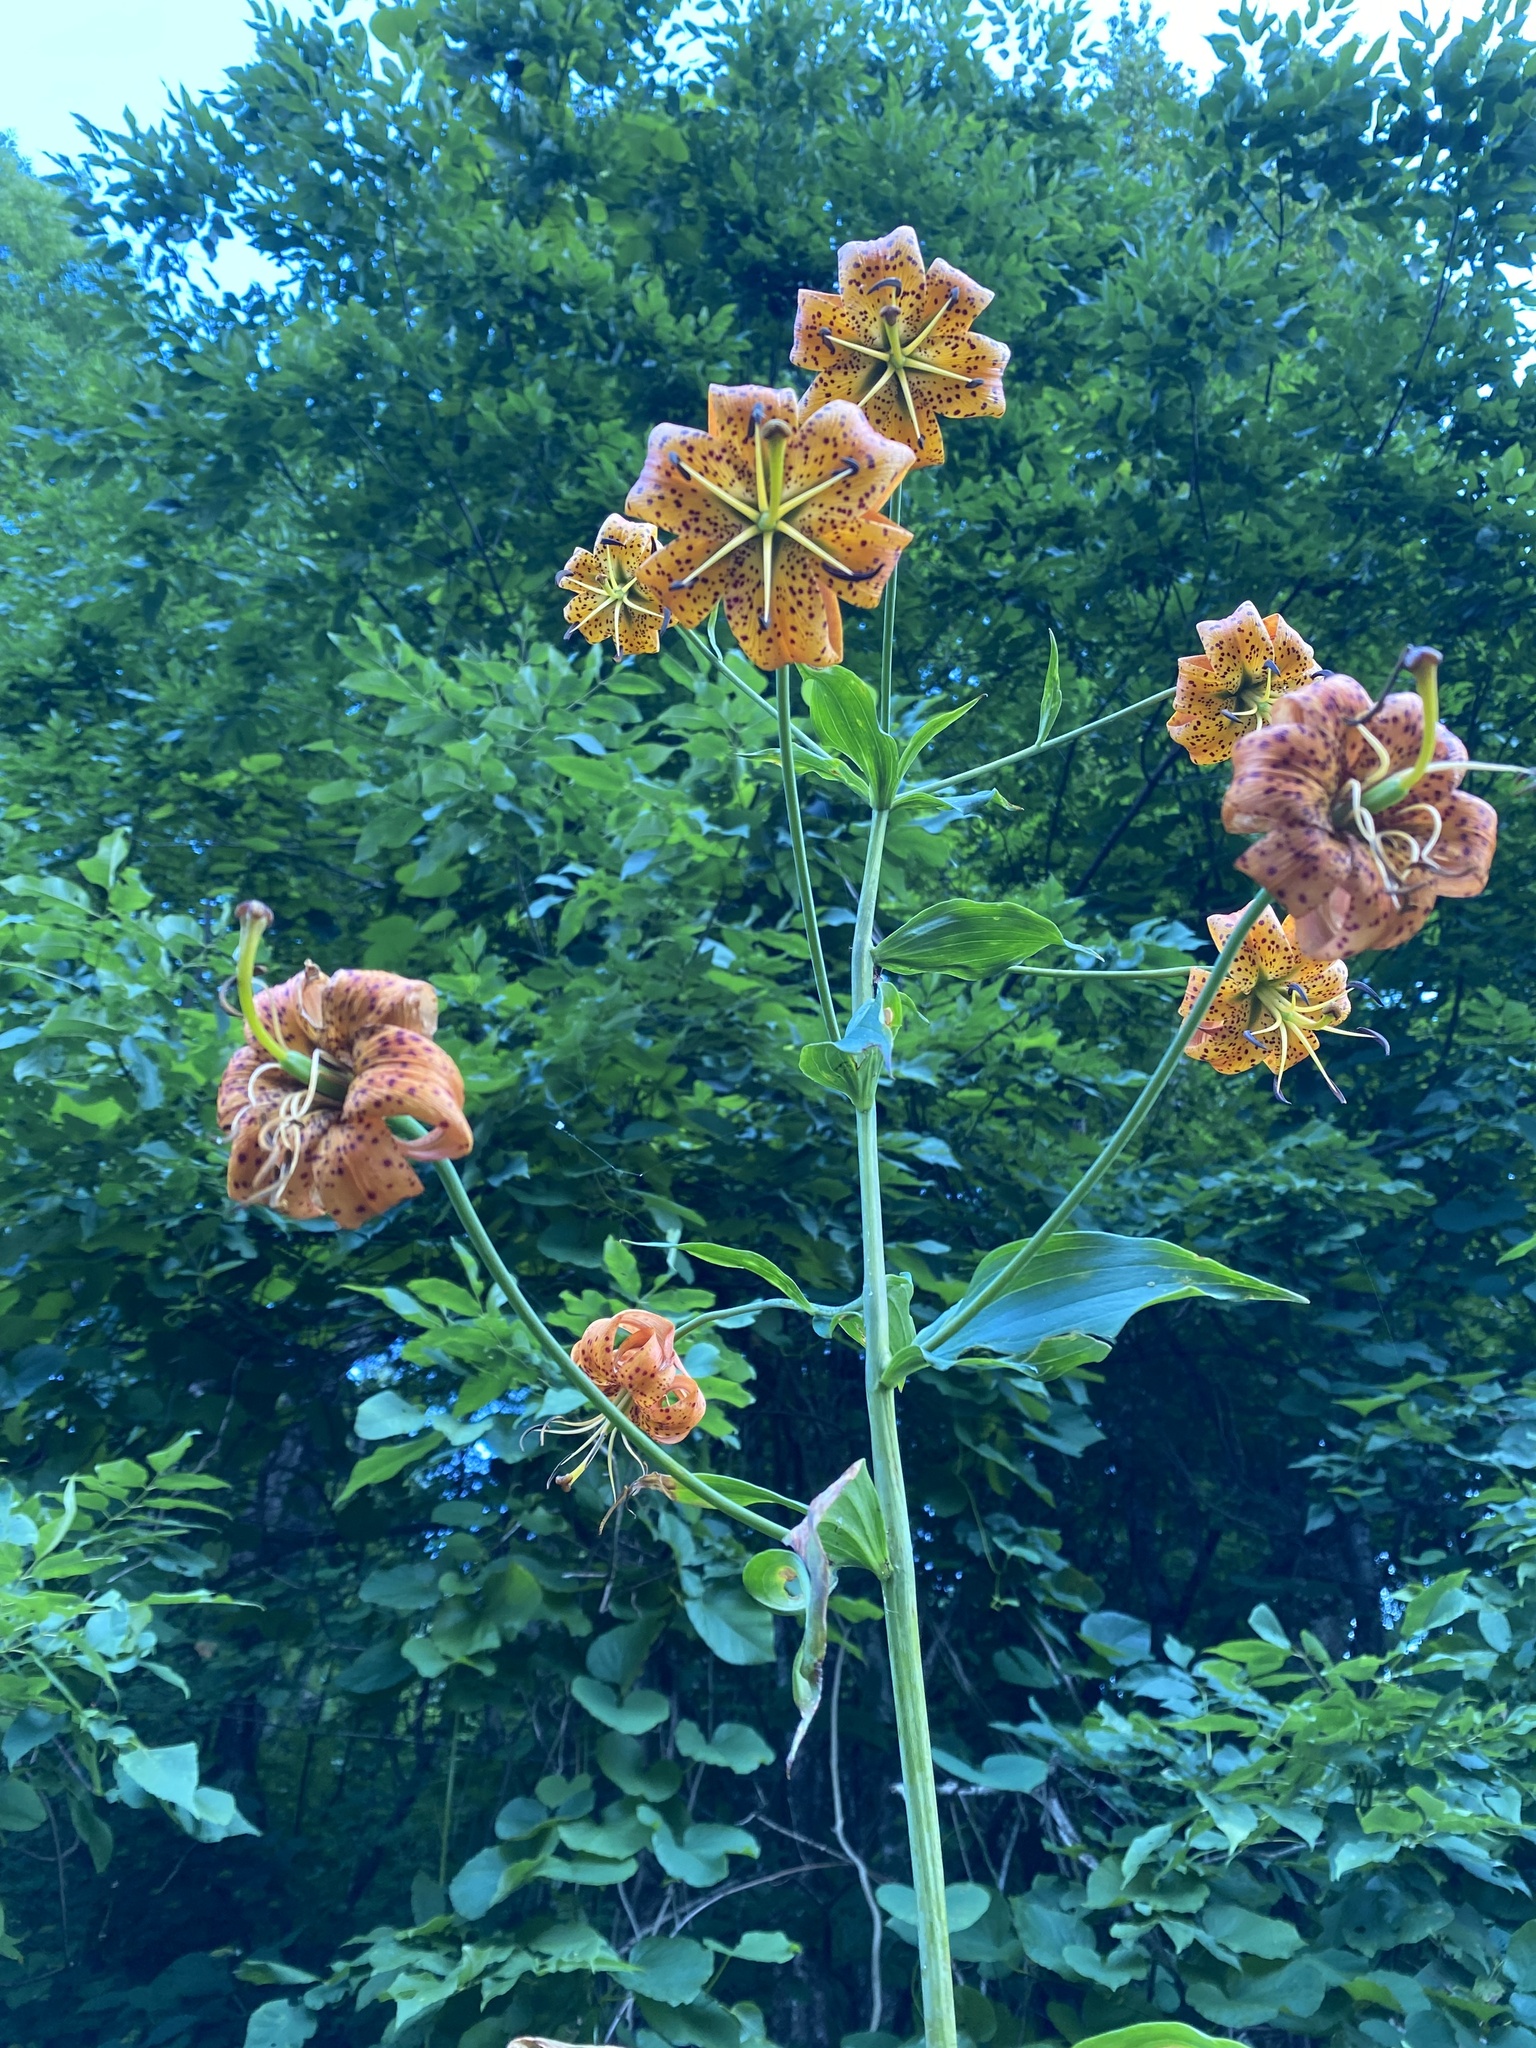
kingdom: Plantae
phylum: Tracheophyta
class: Liliopsida
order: Liliales
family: Liliaceae
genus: Lilium
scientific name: Lilium superbum
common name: American turk's-cap lily
